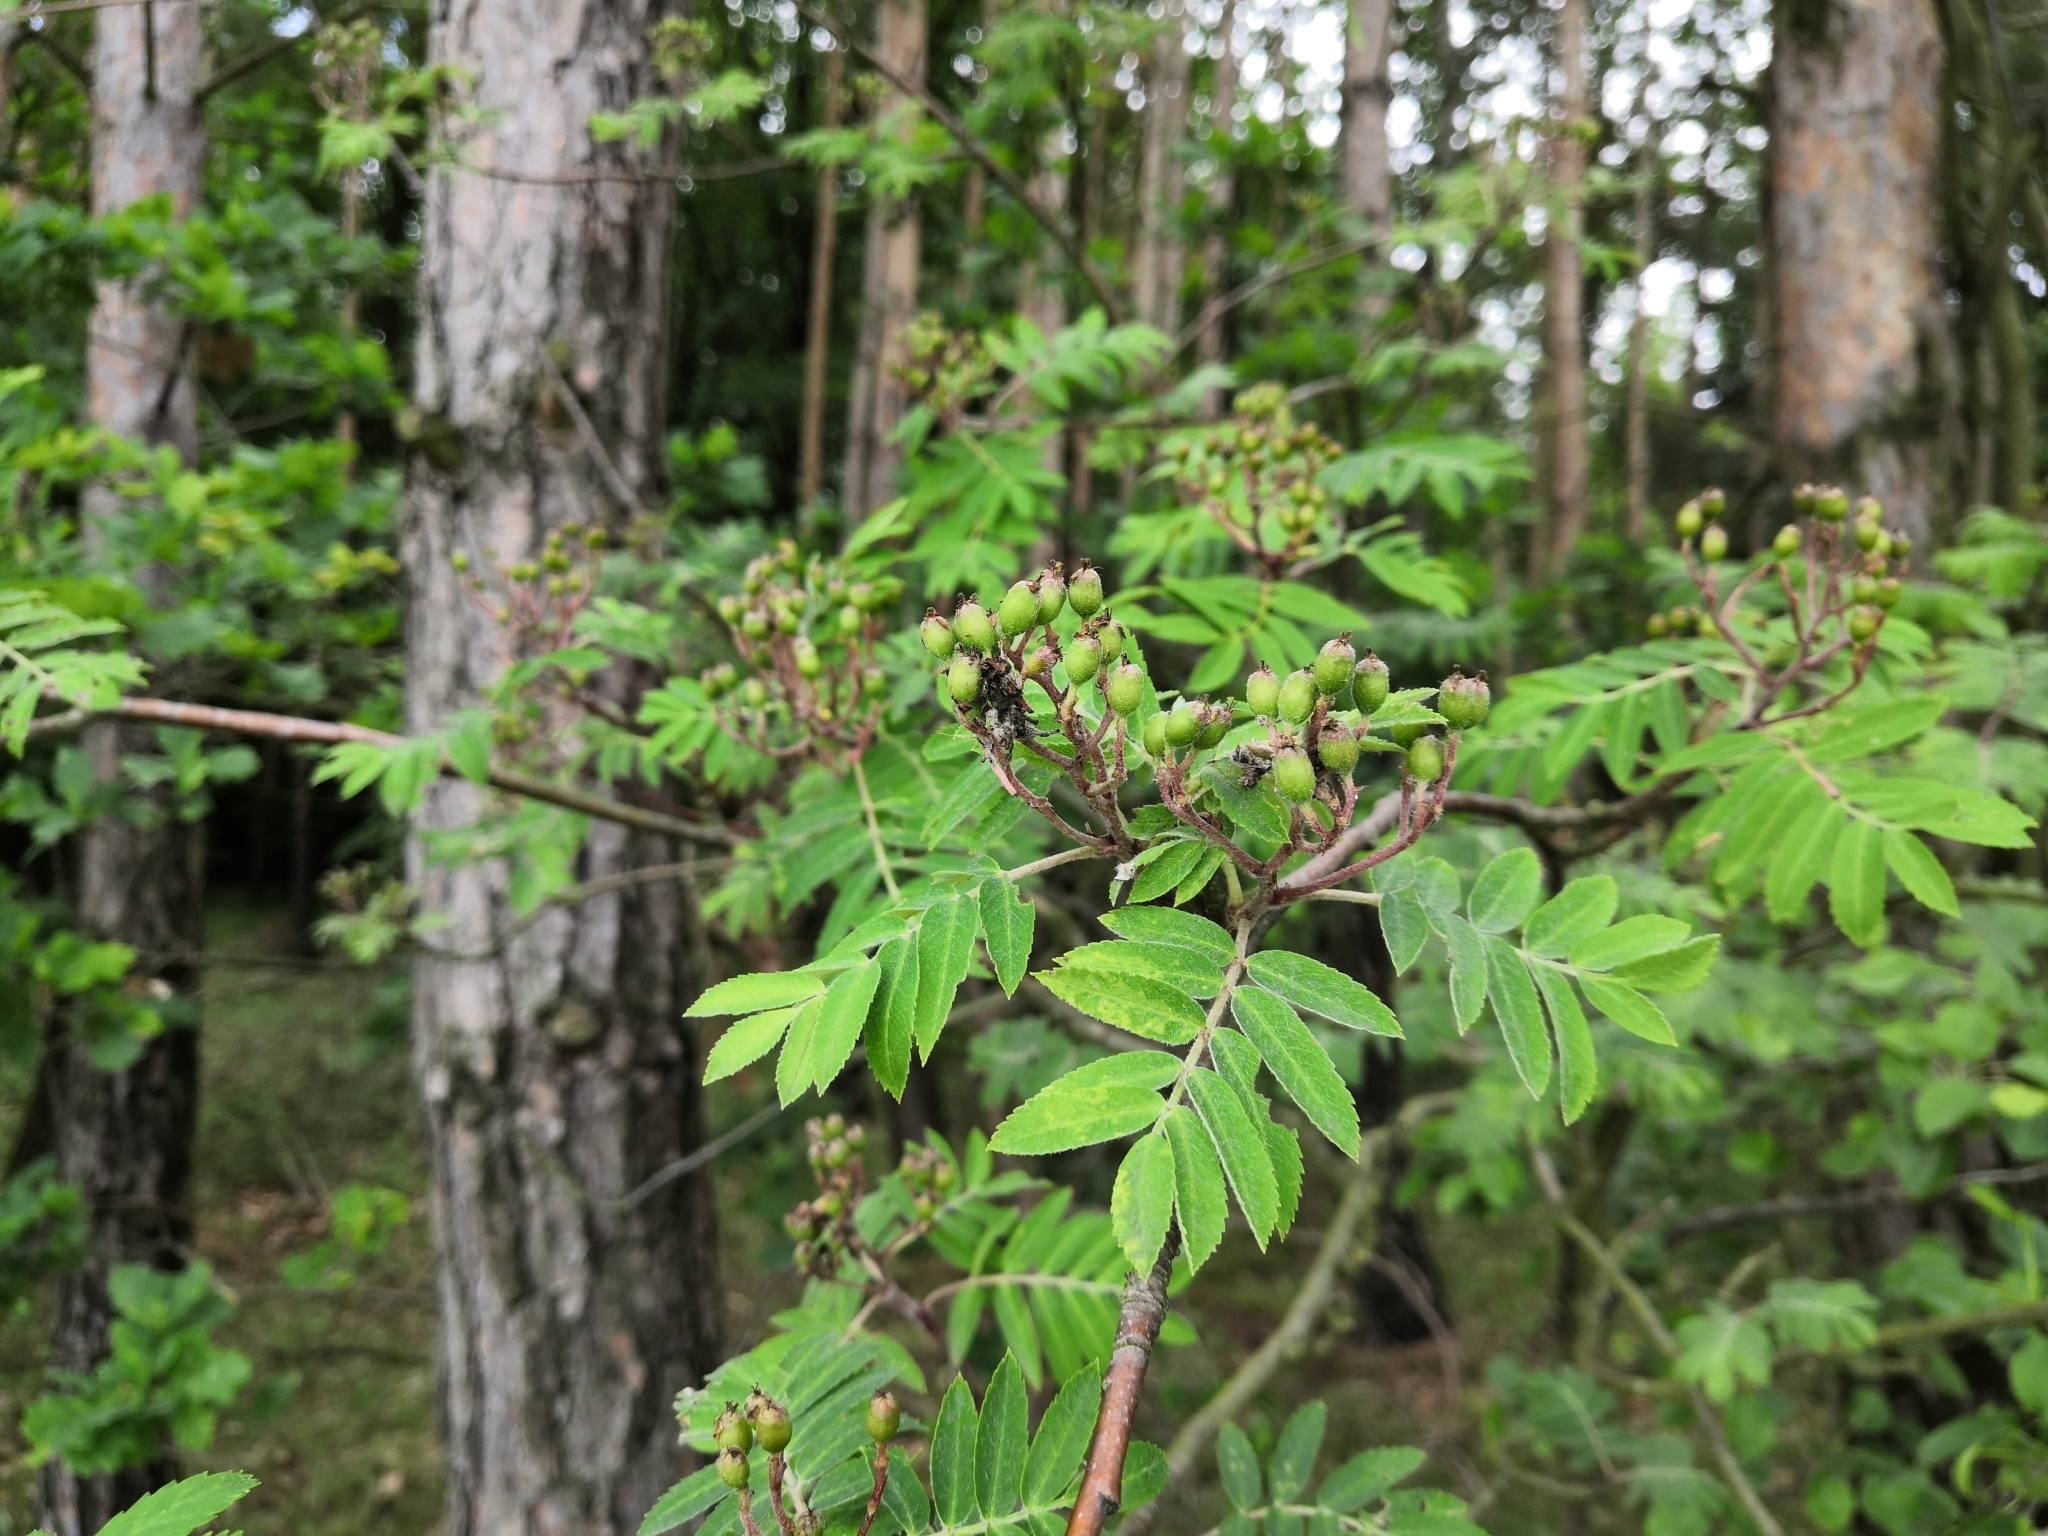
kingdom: Plantae
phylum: Tracheophyta
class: Magnoliopsida
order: Rosales
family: Rosaceae
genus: Sorbus
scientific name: Sorbus aucuparia
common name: Rowan
